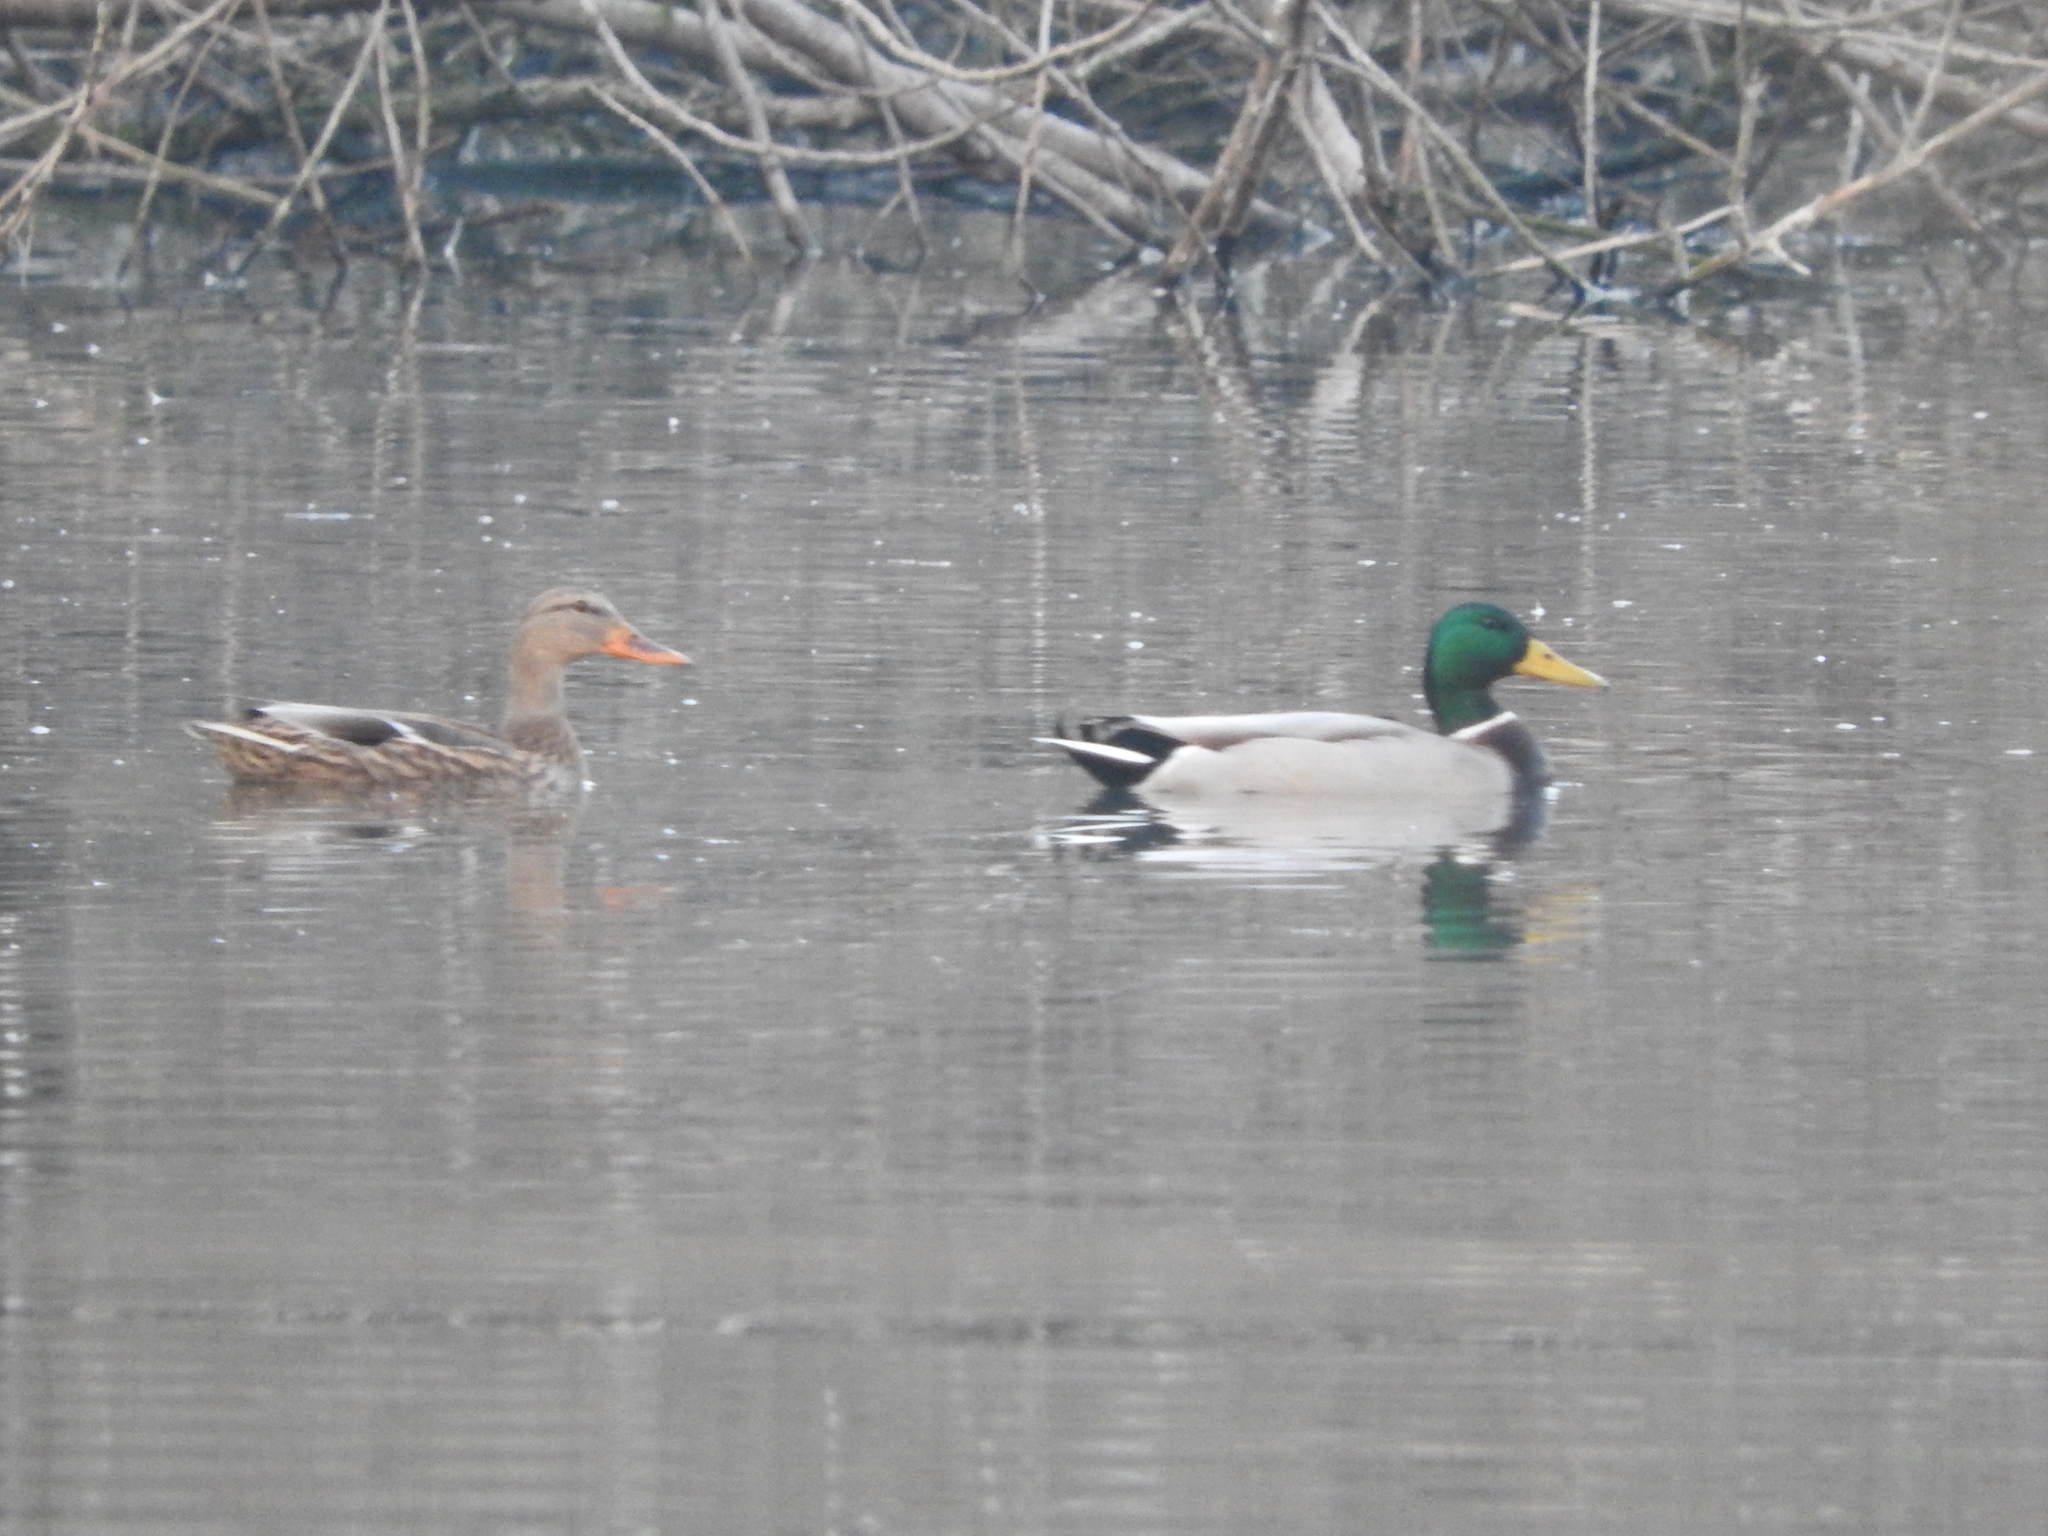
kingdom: Animalia
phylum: Chordata
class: Aves
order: Anseriformes
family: Anatidae
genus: Anas
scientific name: Anas platyrhynchos
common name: Mallard
